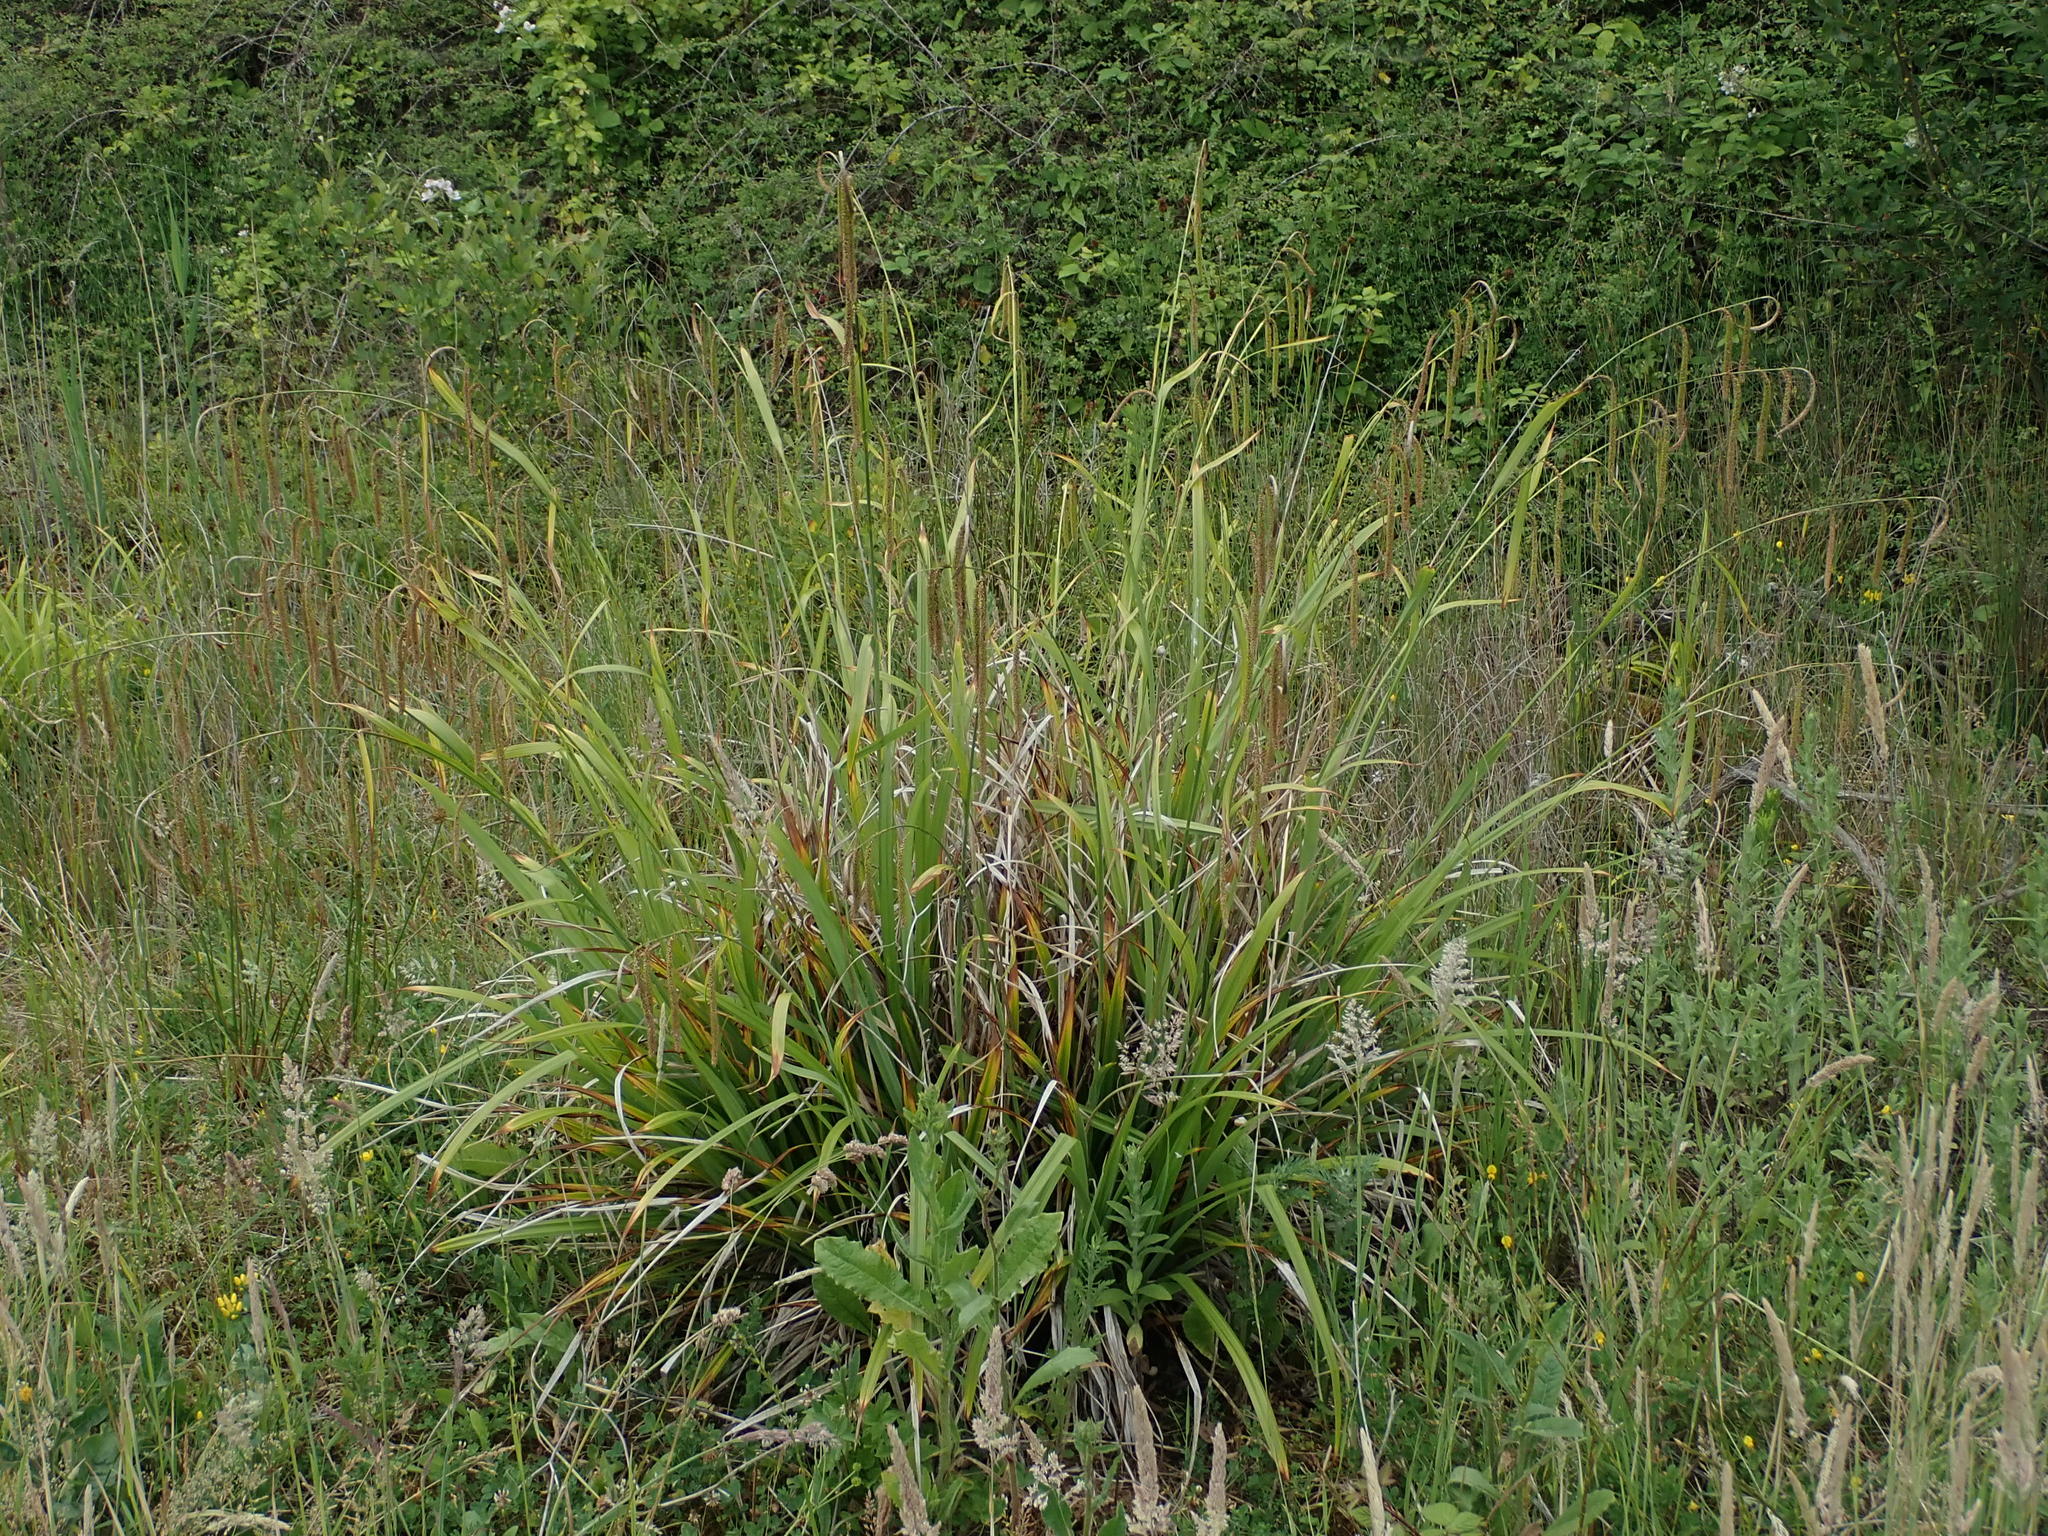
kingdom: Plantae
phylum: Tracheophyta
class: Liliopsida
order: Poales
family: Cyperaceae
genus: Carex
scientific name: Carex pendula
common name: Pendulous sedge
